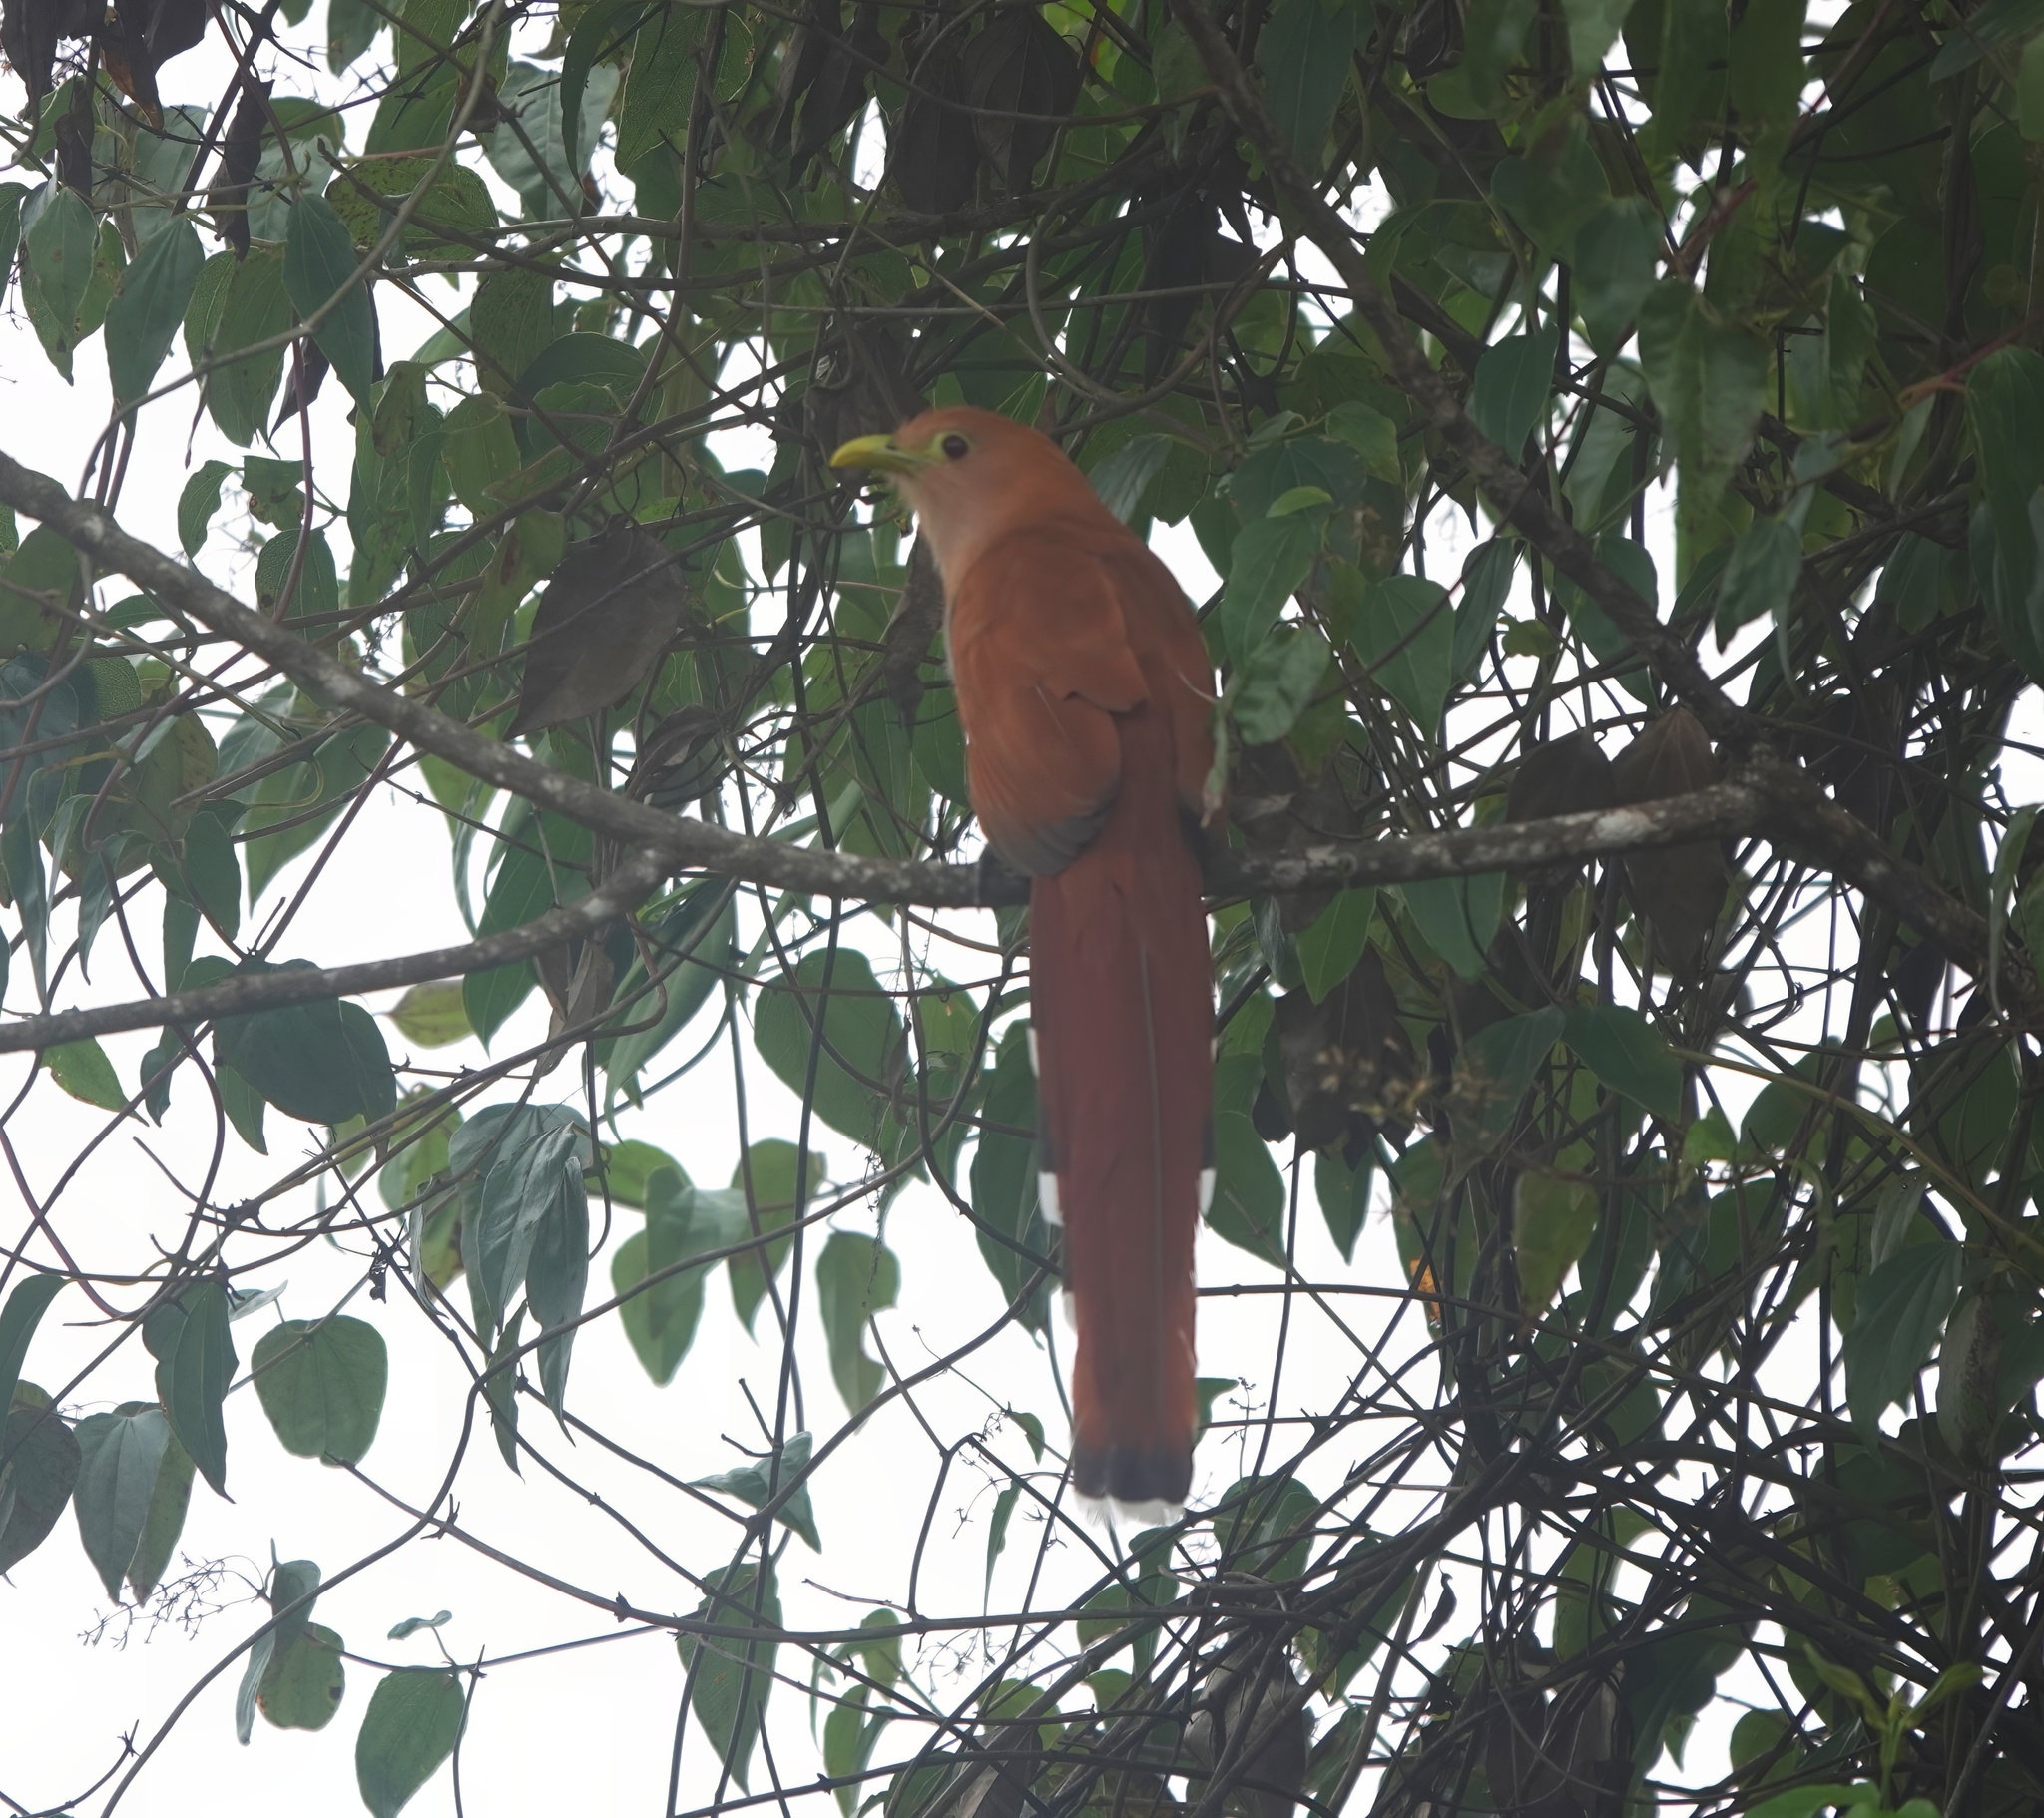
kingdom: Animalia
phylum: Chordata
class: Aves
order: Cuculiformes
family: Cuculidae
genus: Piaya
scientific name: Piaya cayana
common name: Squirrel cuckoo
